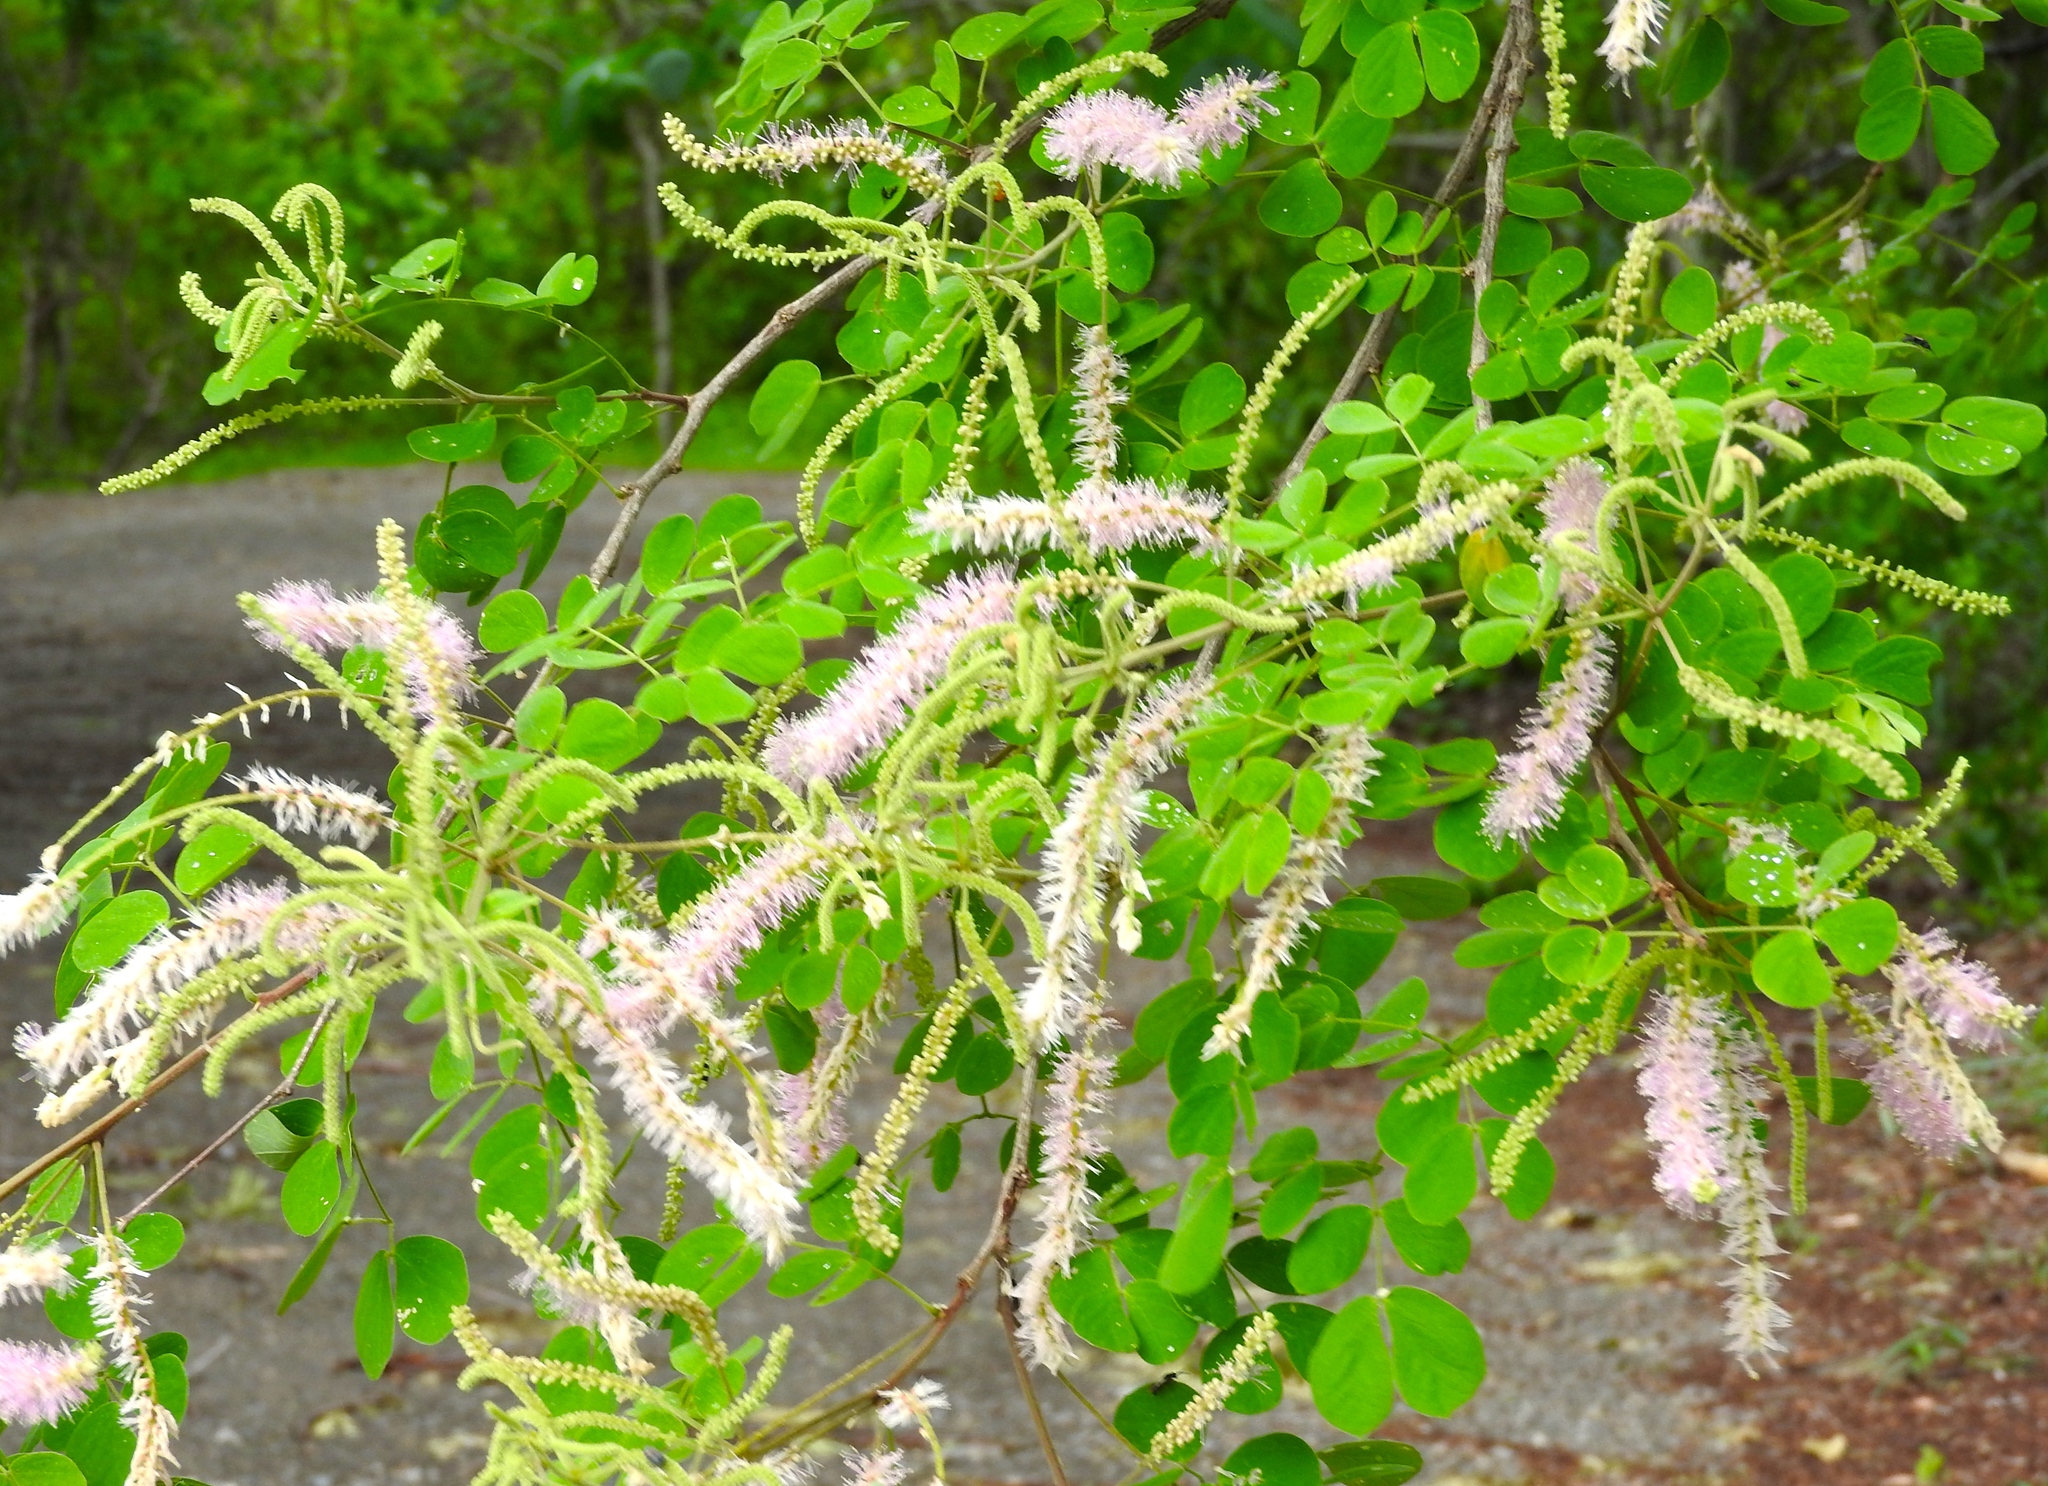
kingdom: Plantae
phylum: Tracheophyta
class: Magnoliopsida
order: Fabales
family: Fabaceae
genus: Mimosa
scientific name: Mimosa spirocarpa
